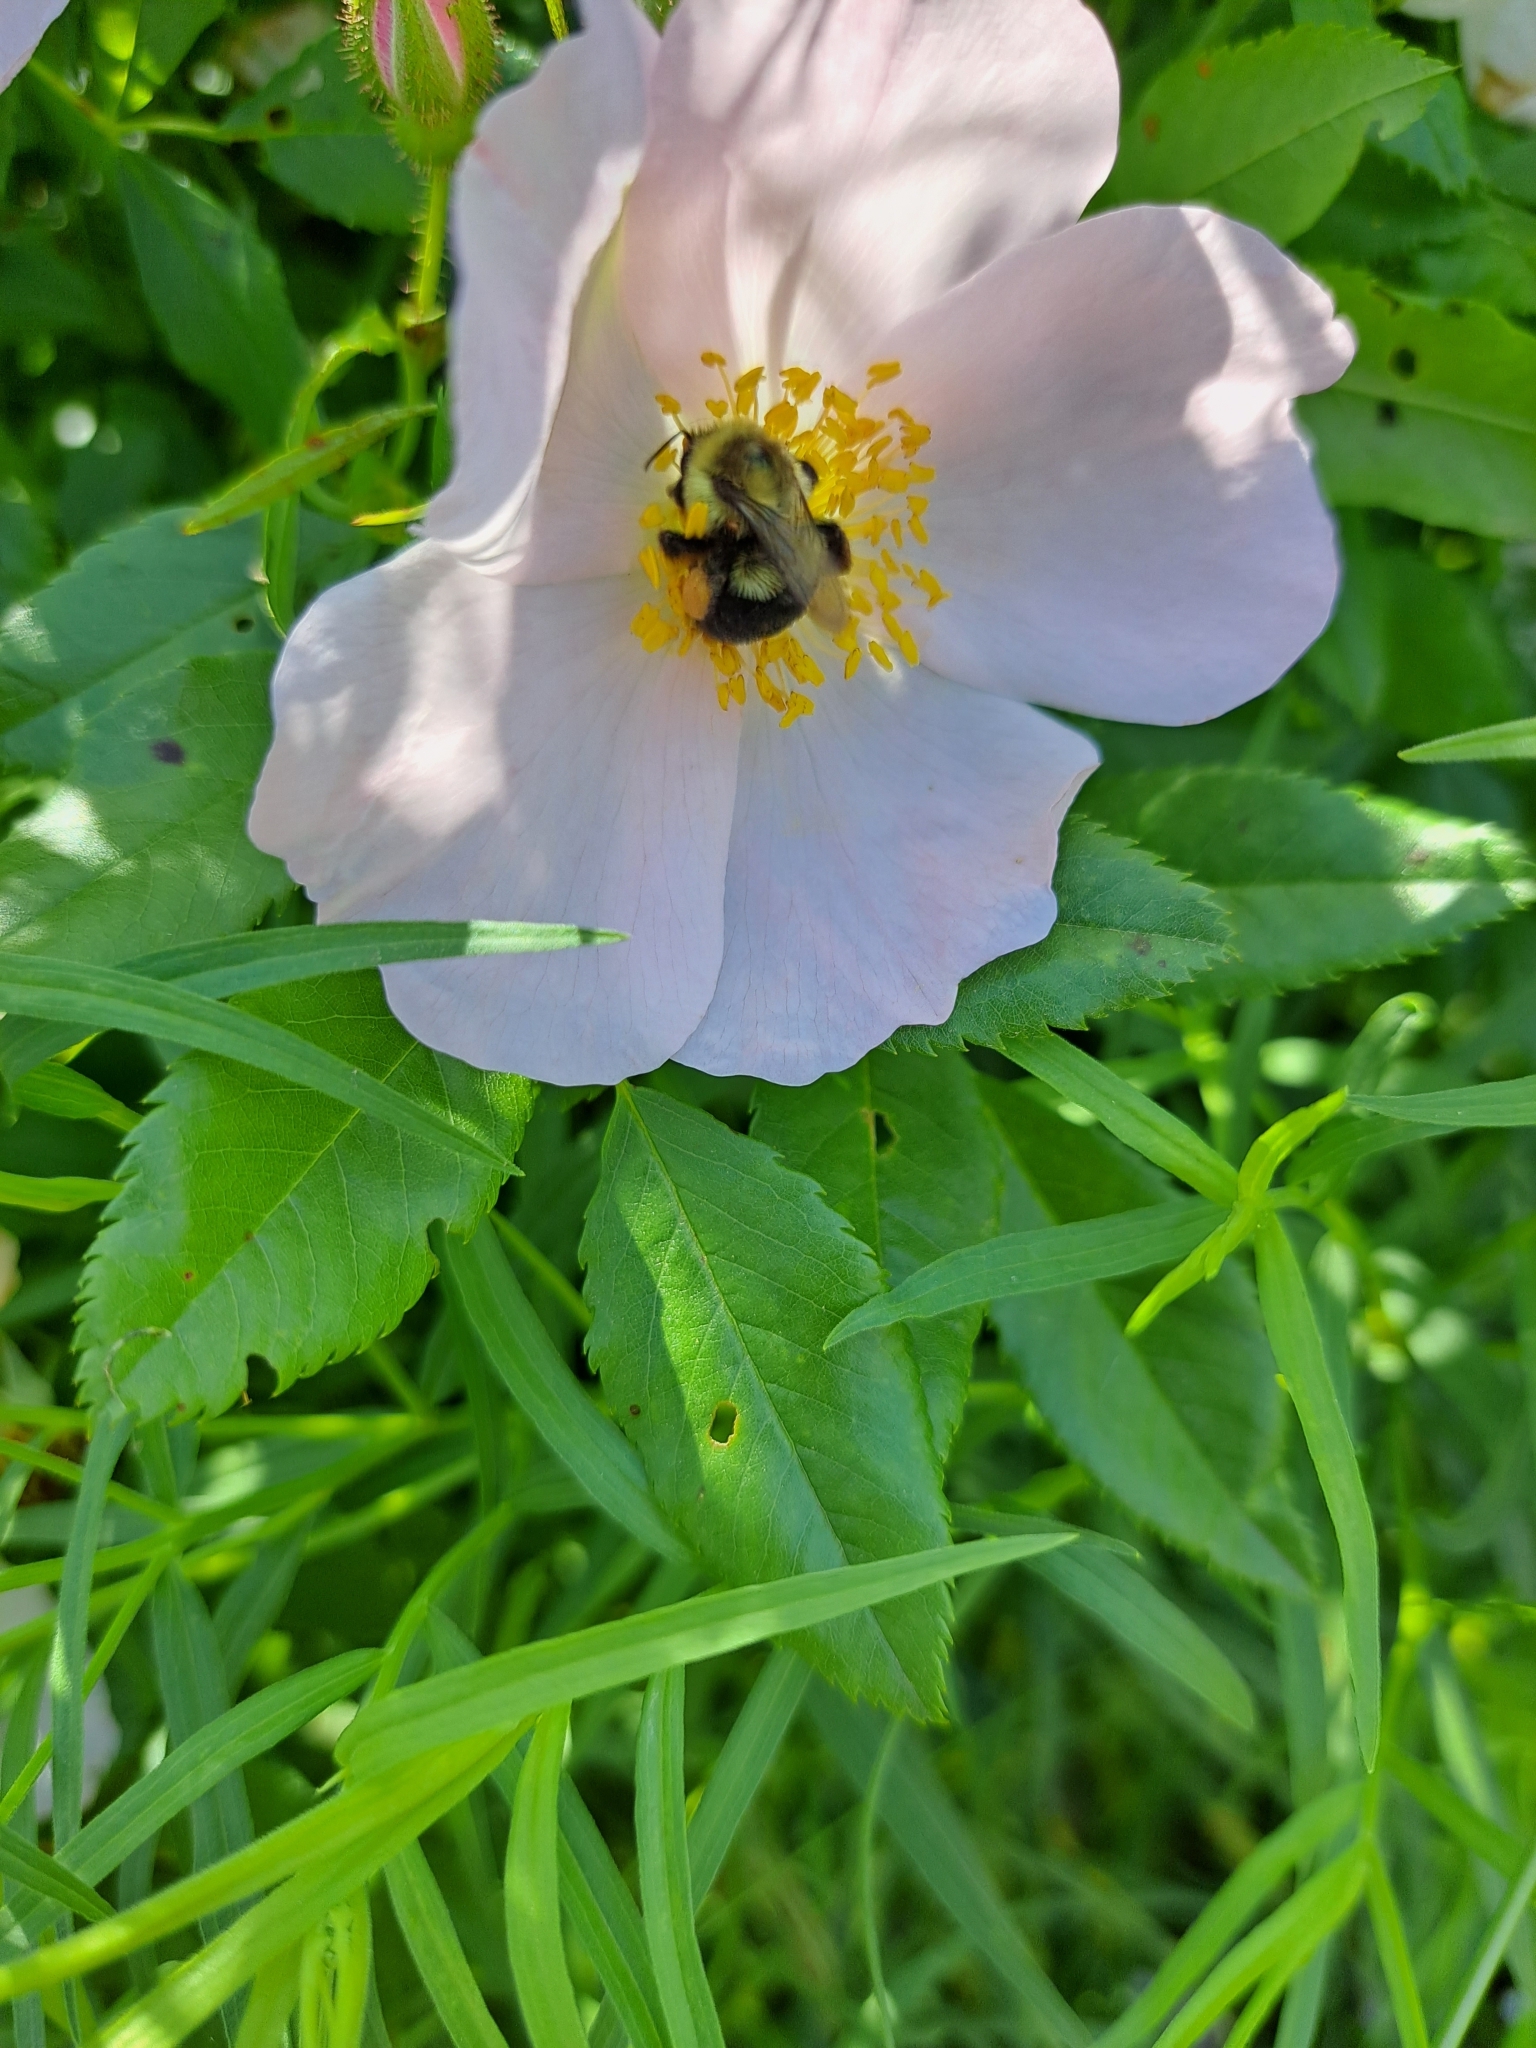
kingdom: Animalia
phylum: Arthropoda
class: Insecta
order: Hymenoptera
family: Apidae
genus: Bombus
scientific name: Bombus impatiens
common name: Common eastern bumble bee
